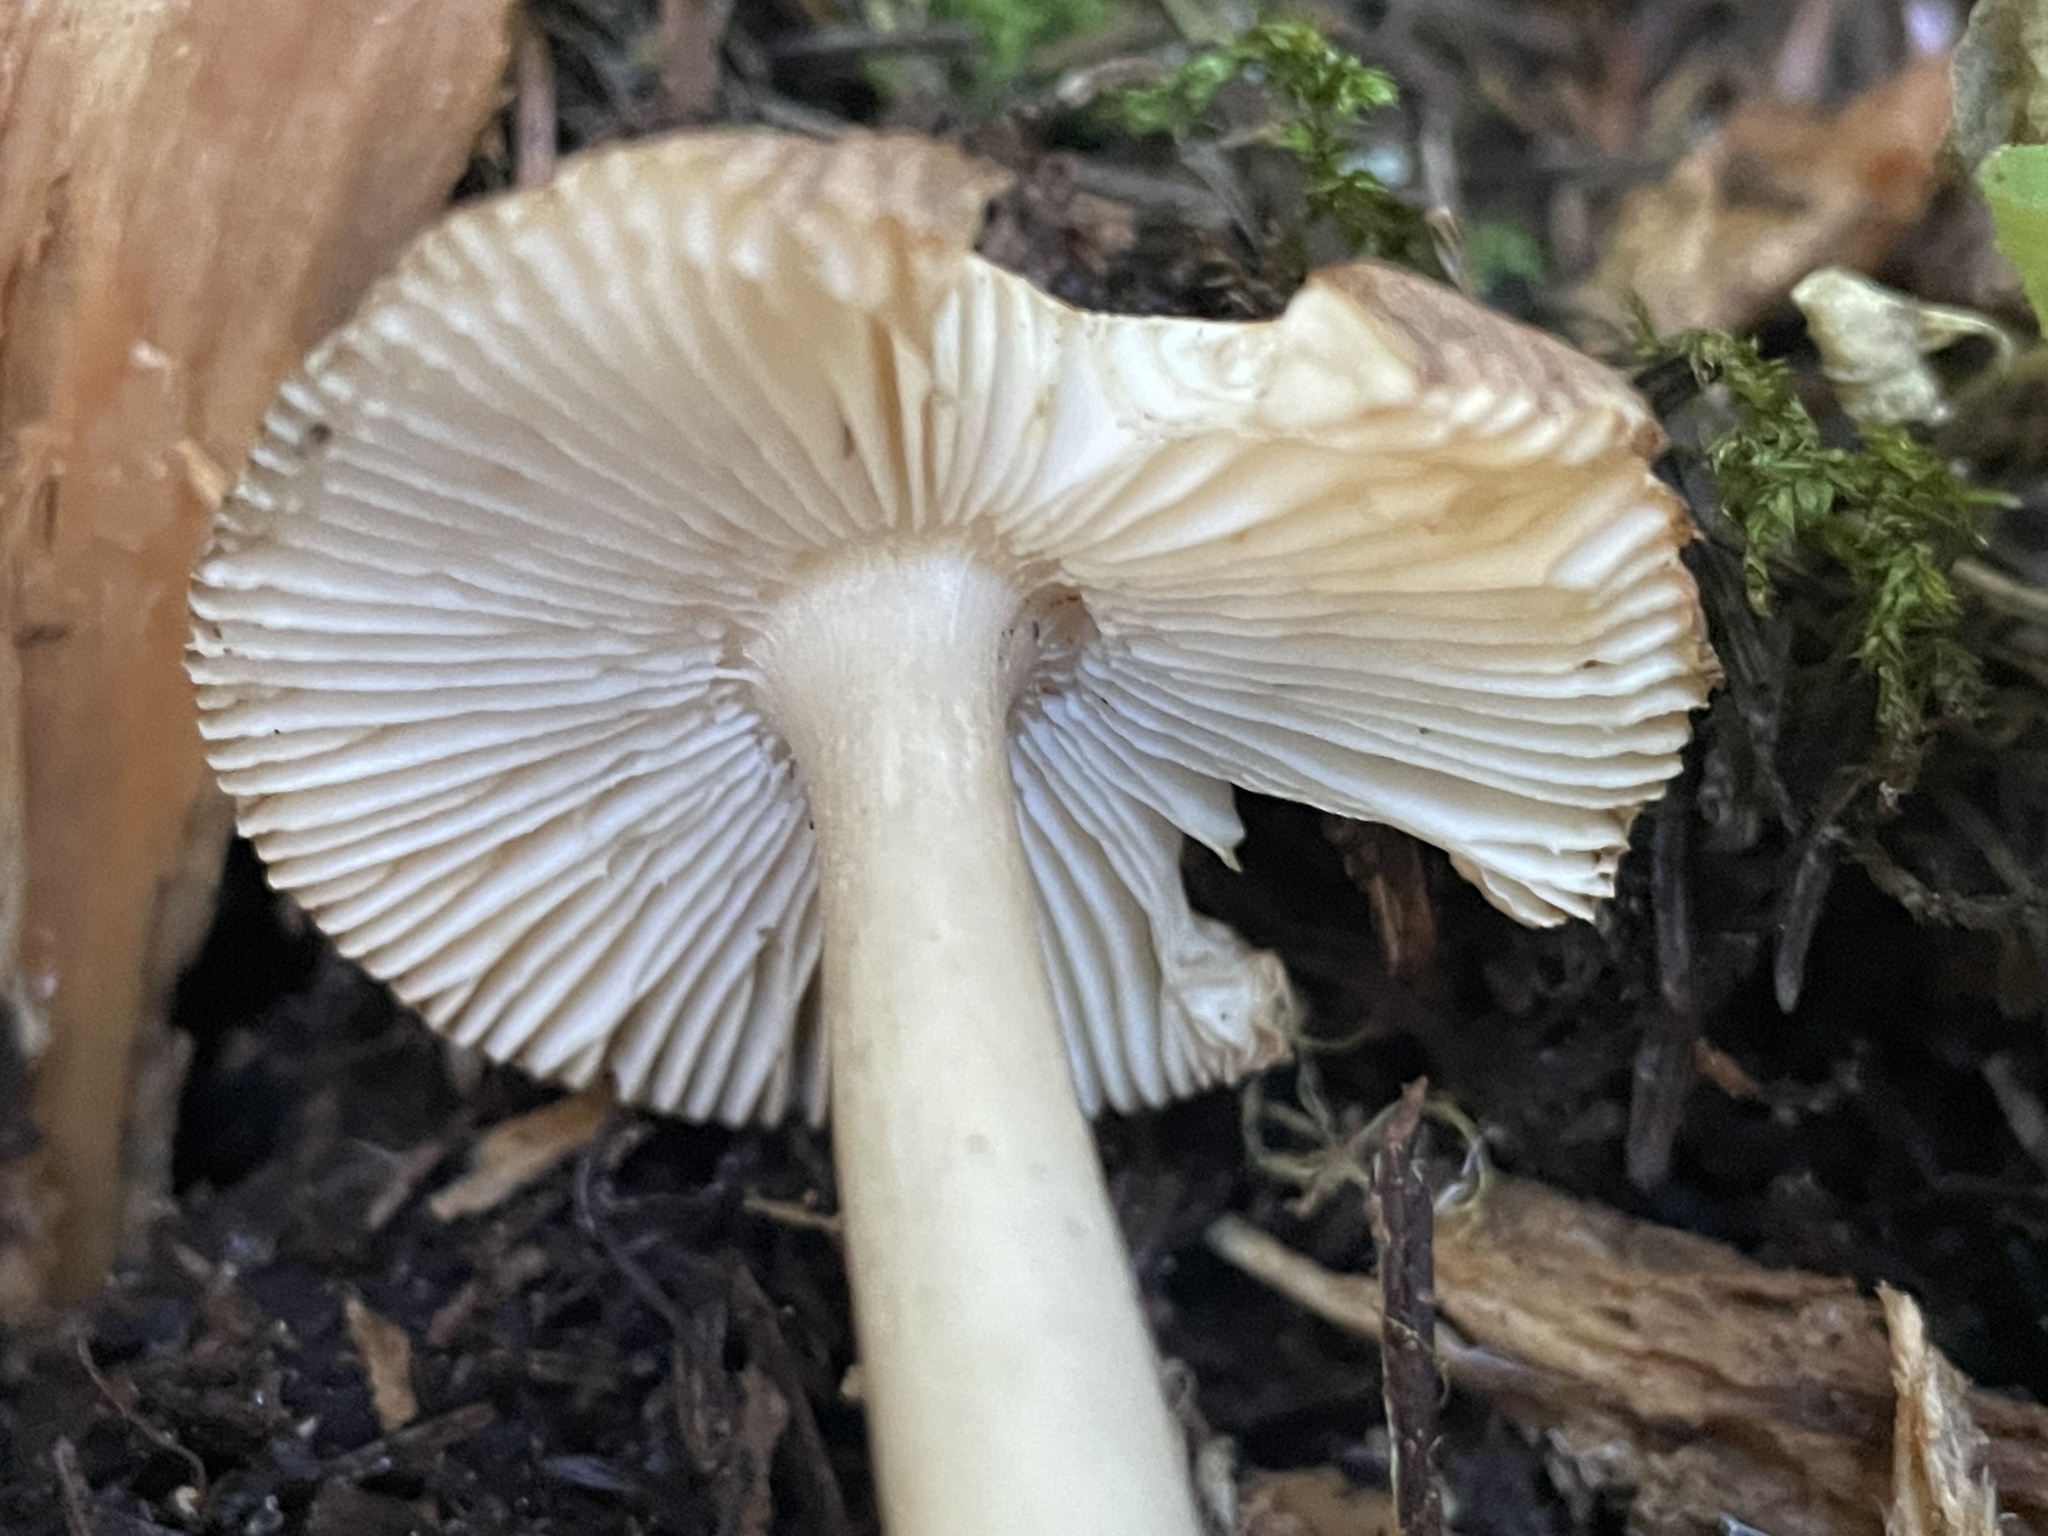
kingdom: Fungi
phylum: Basidiomycota
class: Agaricomycetes
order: Agaricales
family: Amanitaceae
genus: Amanita
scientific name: Amanita fulva
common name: Tawny grisette
